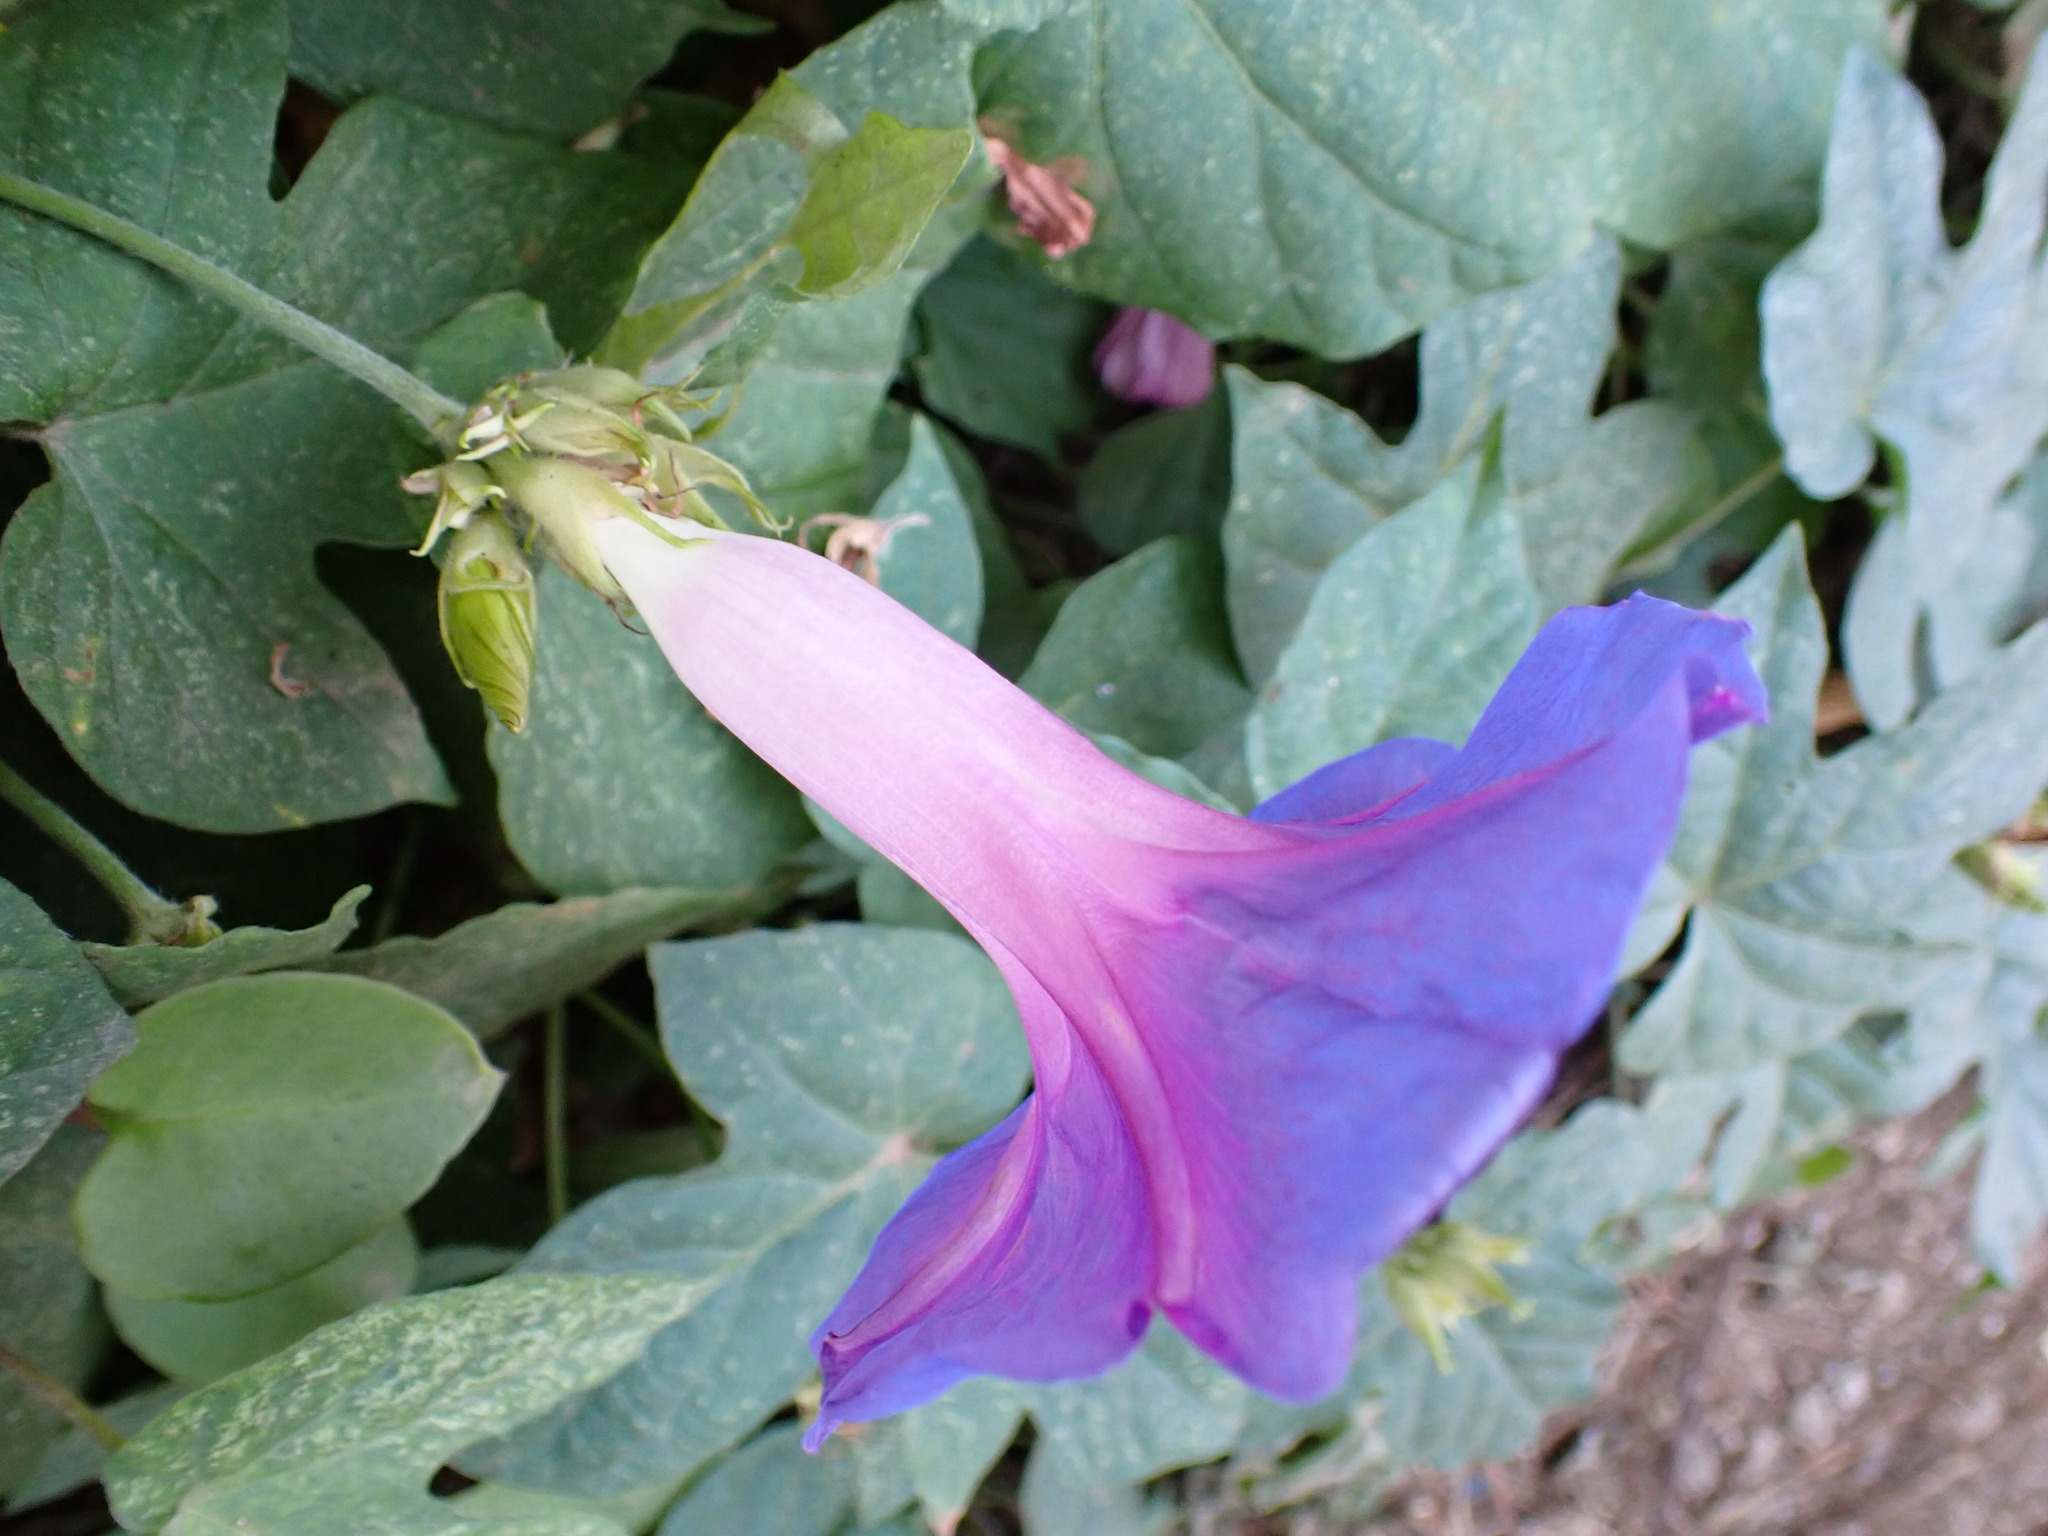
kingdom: Plantae
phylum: Tracheophyta
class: Magnoliopsida
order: Solanales
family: Convolvulaceae
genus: Ipomoea
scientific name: Ipomoea indica
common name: Blue dawnflower
